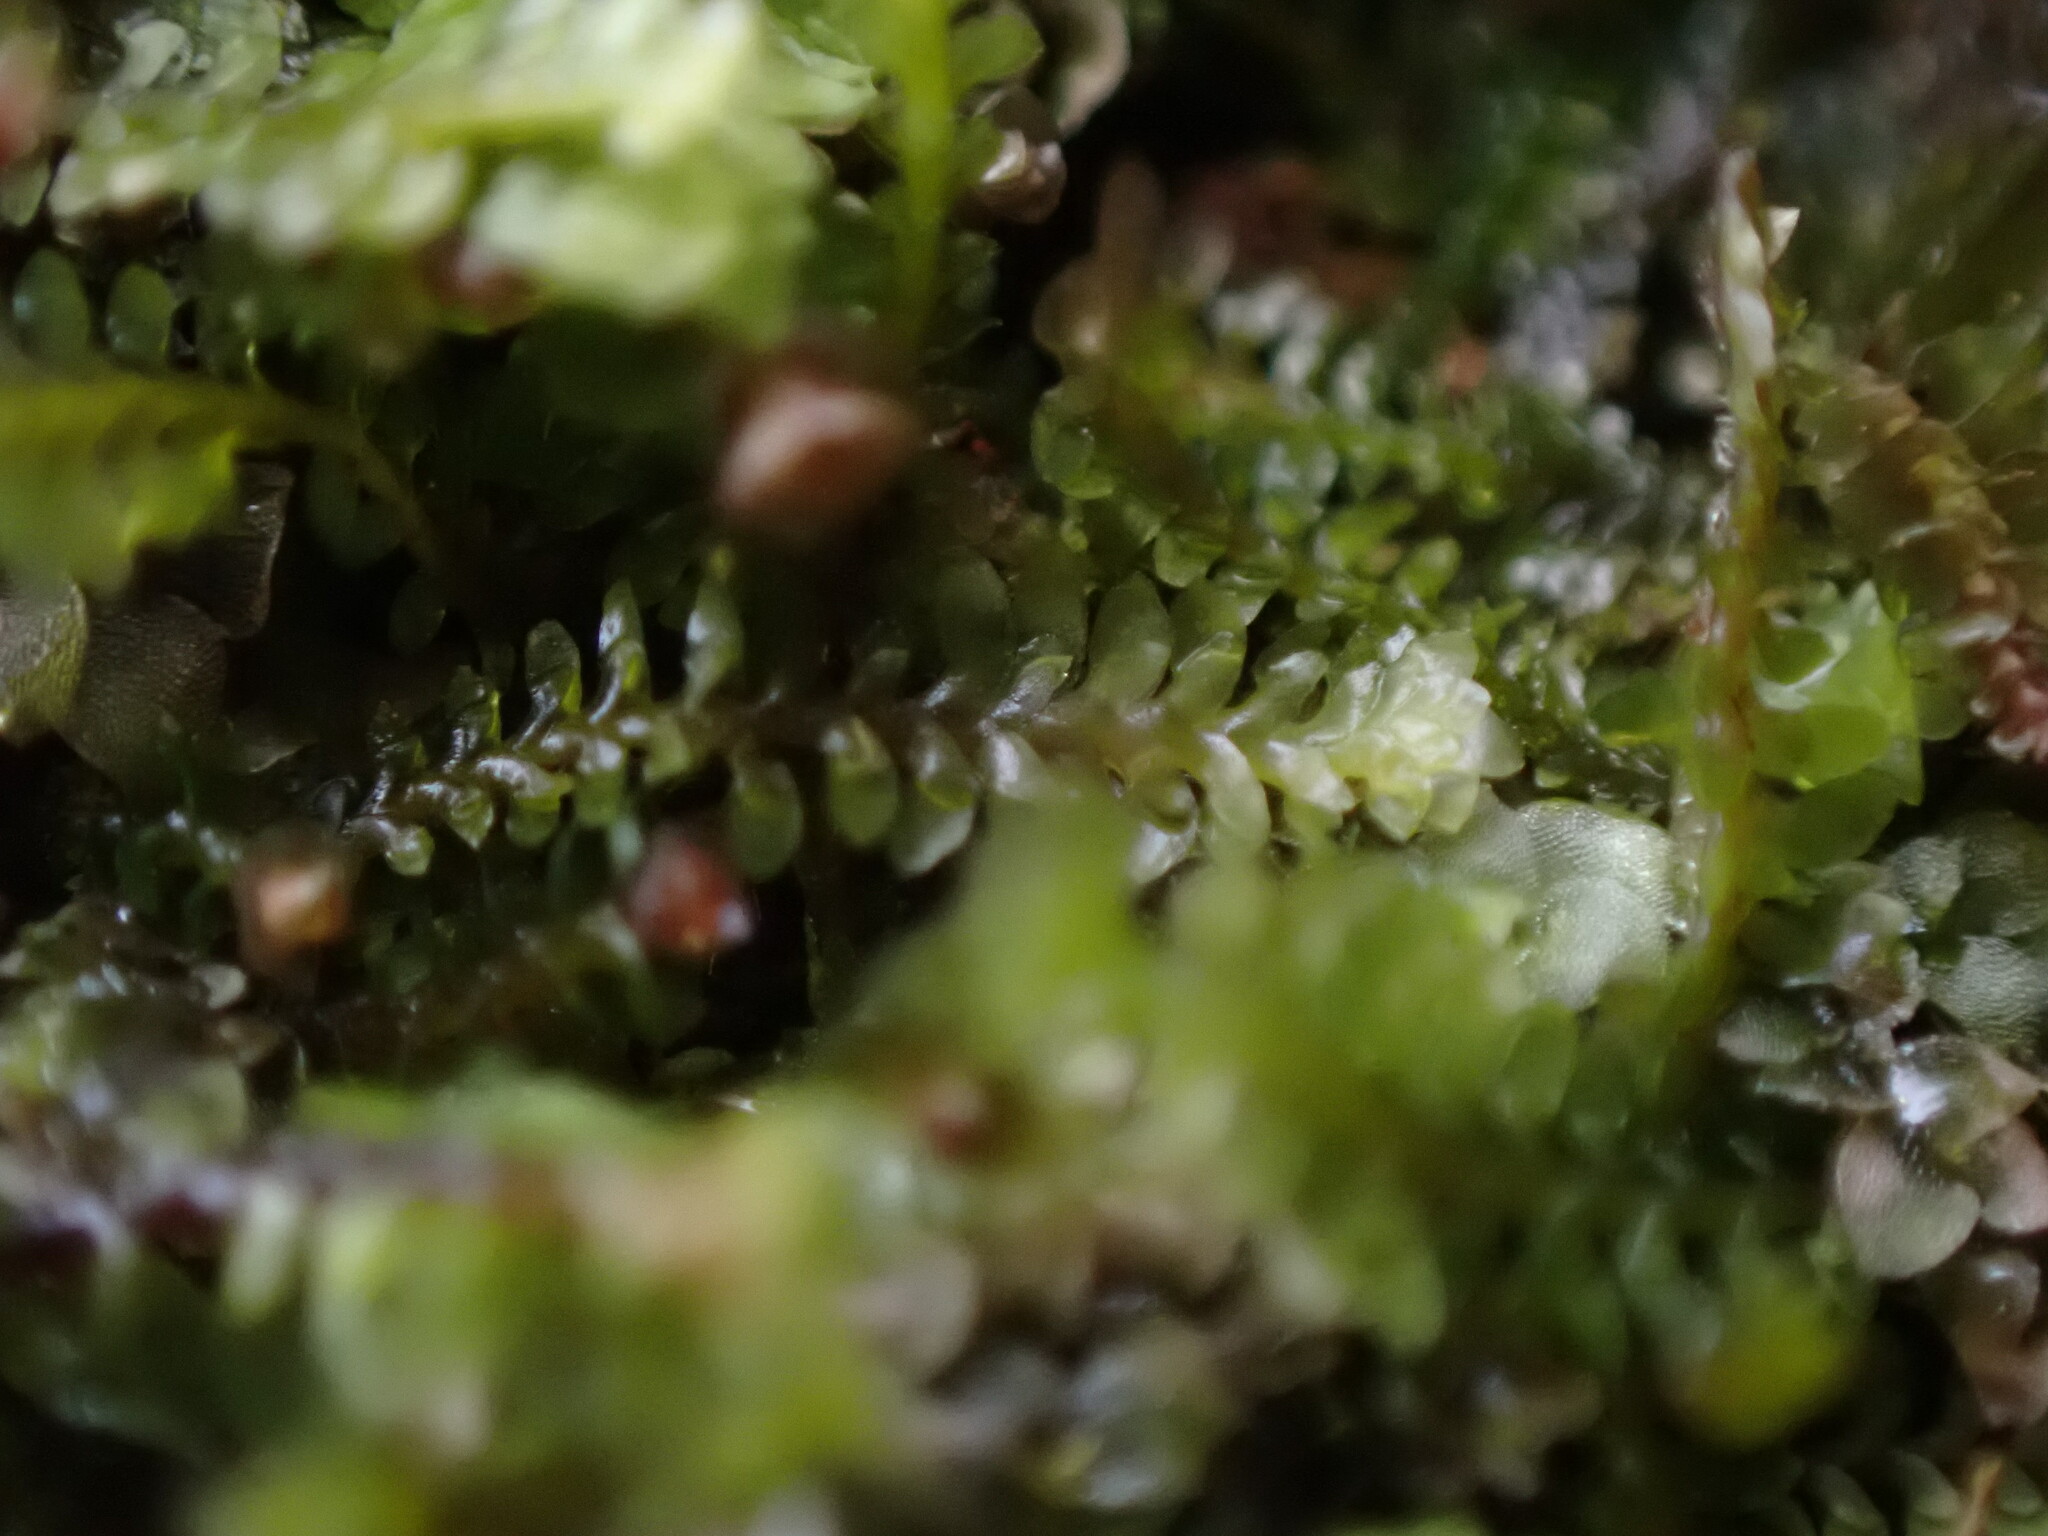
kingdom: Plantae
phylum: Marchantiophyta
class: Jungermanniopsida
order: Jungermanniales
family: Scapaniaceae
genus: Diplophyllum
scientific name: Diplophyllum taxifolium
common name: Alpine earwort
